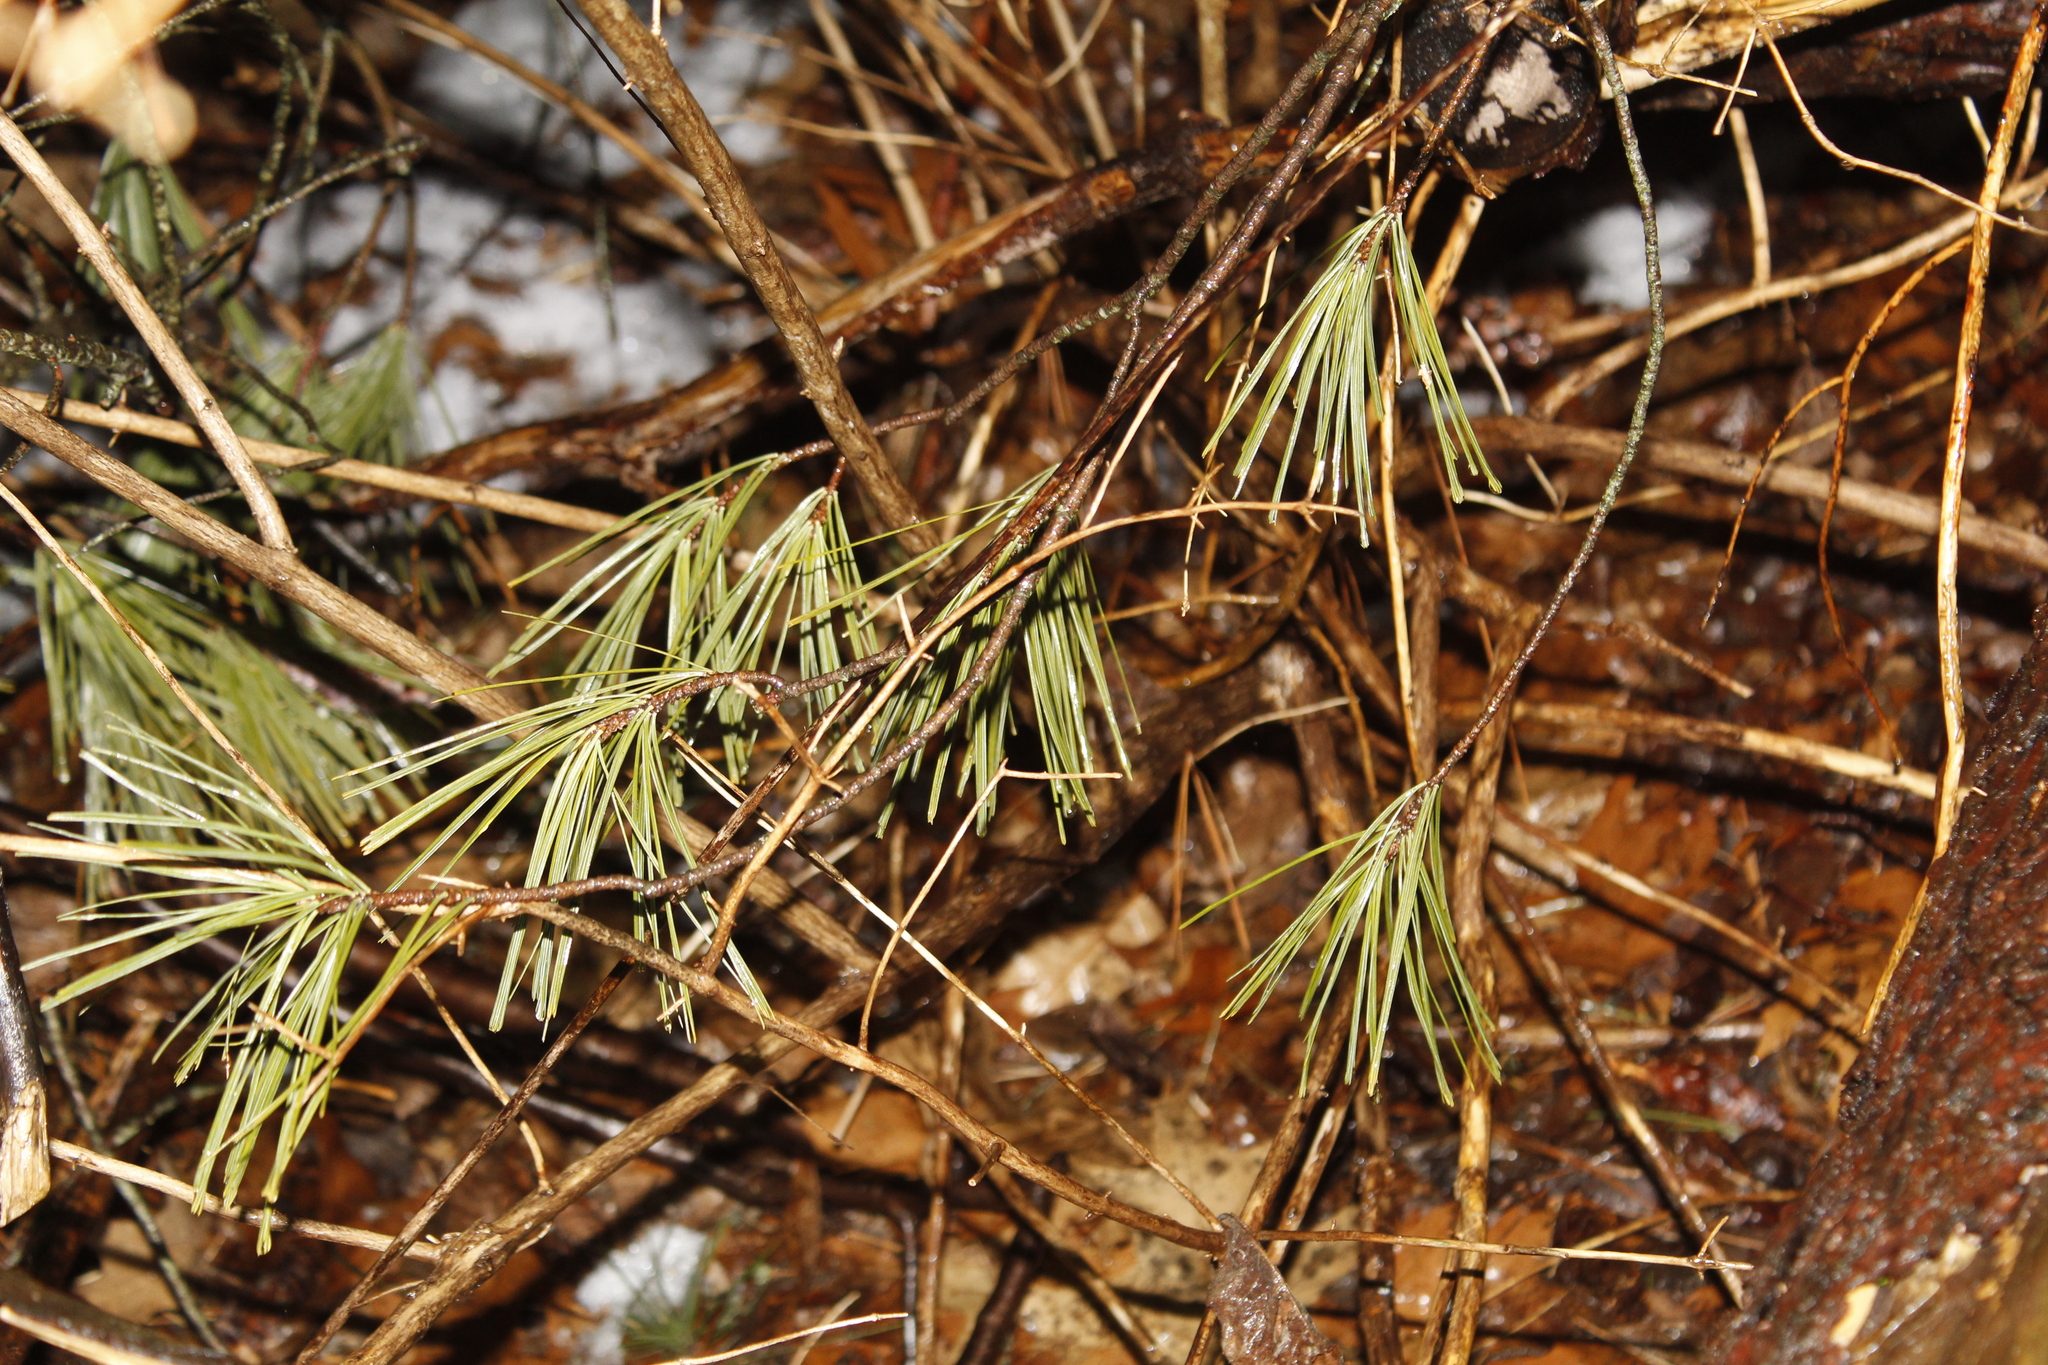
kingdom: Plantae
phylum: Tracheophyta
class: Pinopsida
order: Pinales
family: Pinaceae
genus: Pinus
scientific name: Pinus strobus
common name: Weymouth pine
